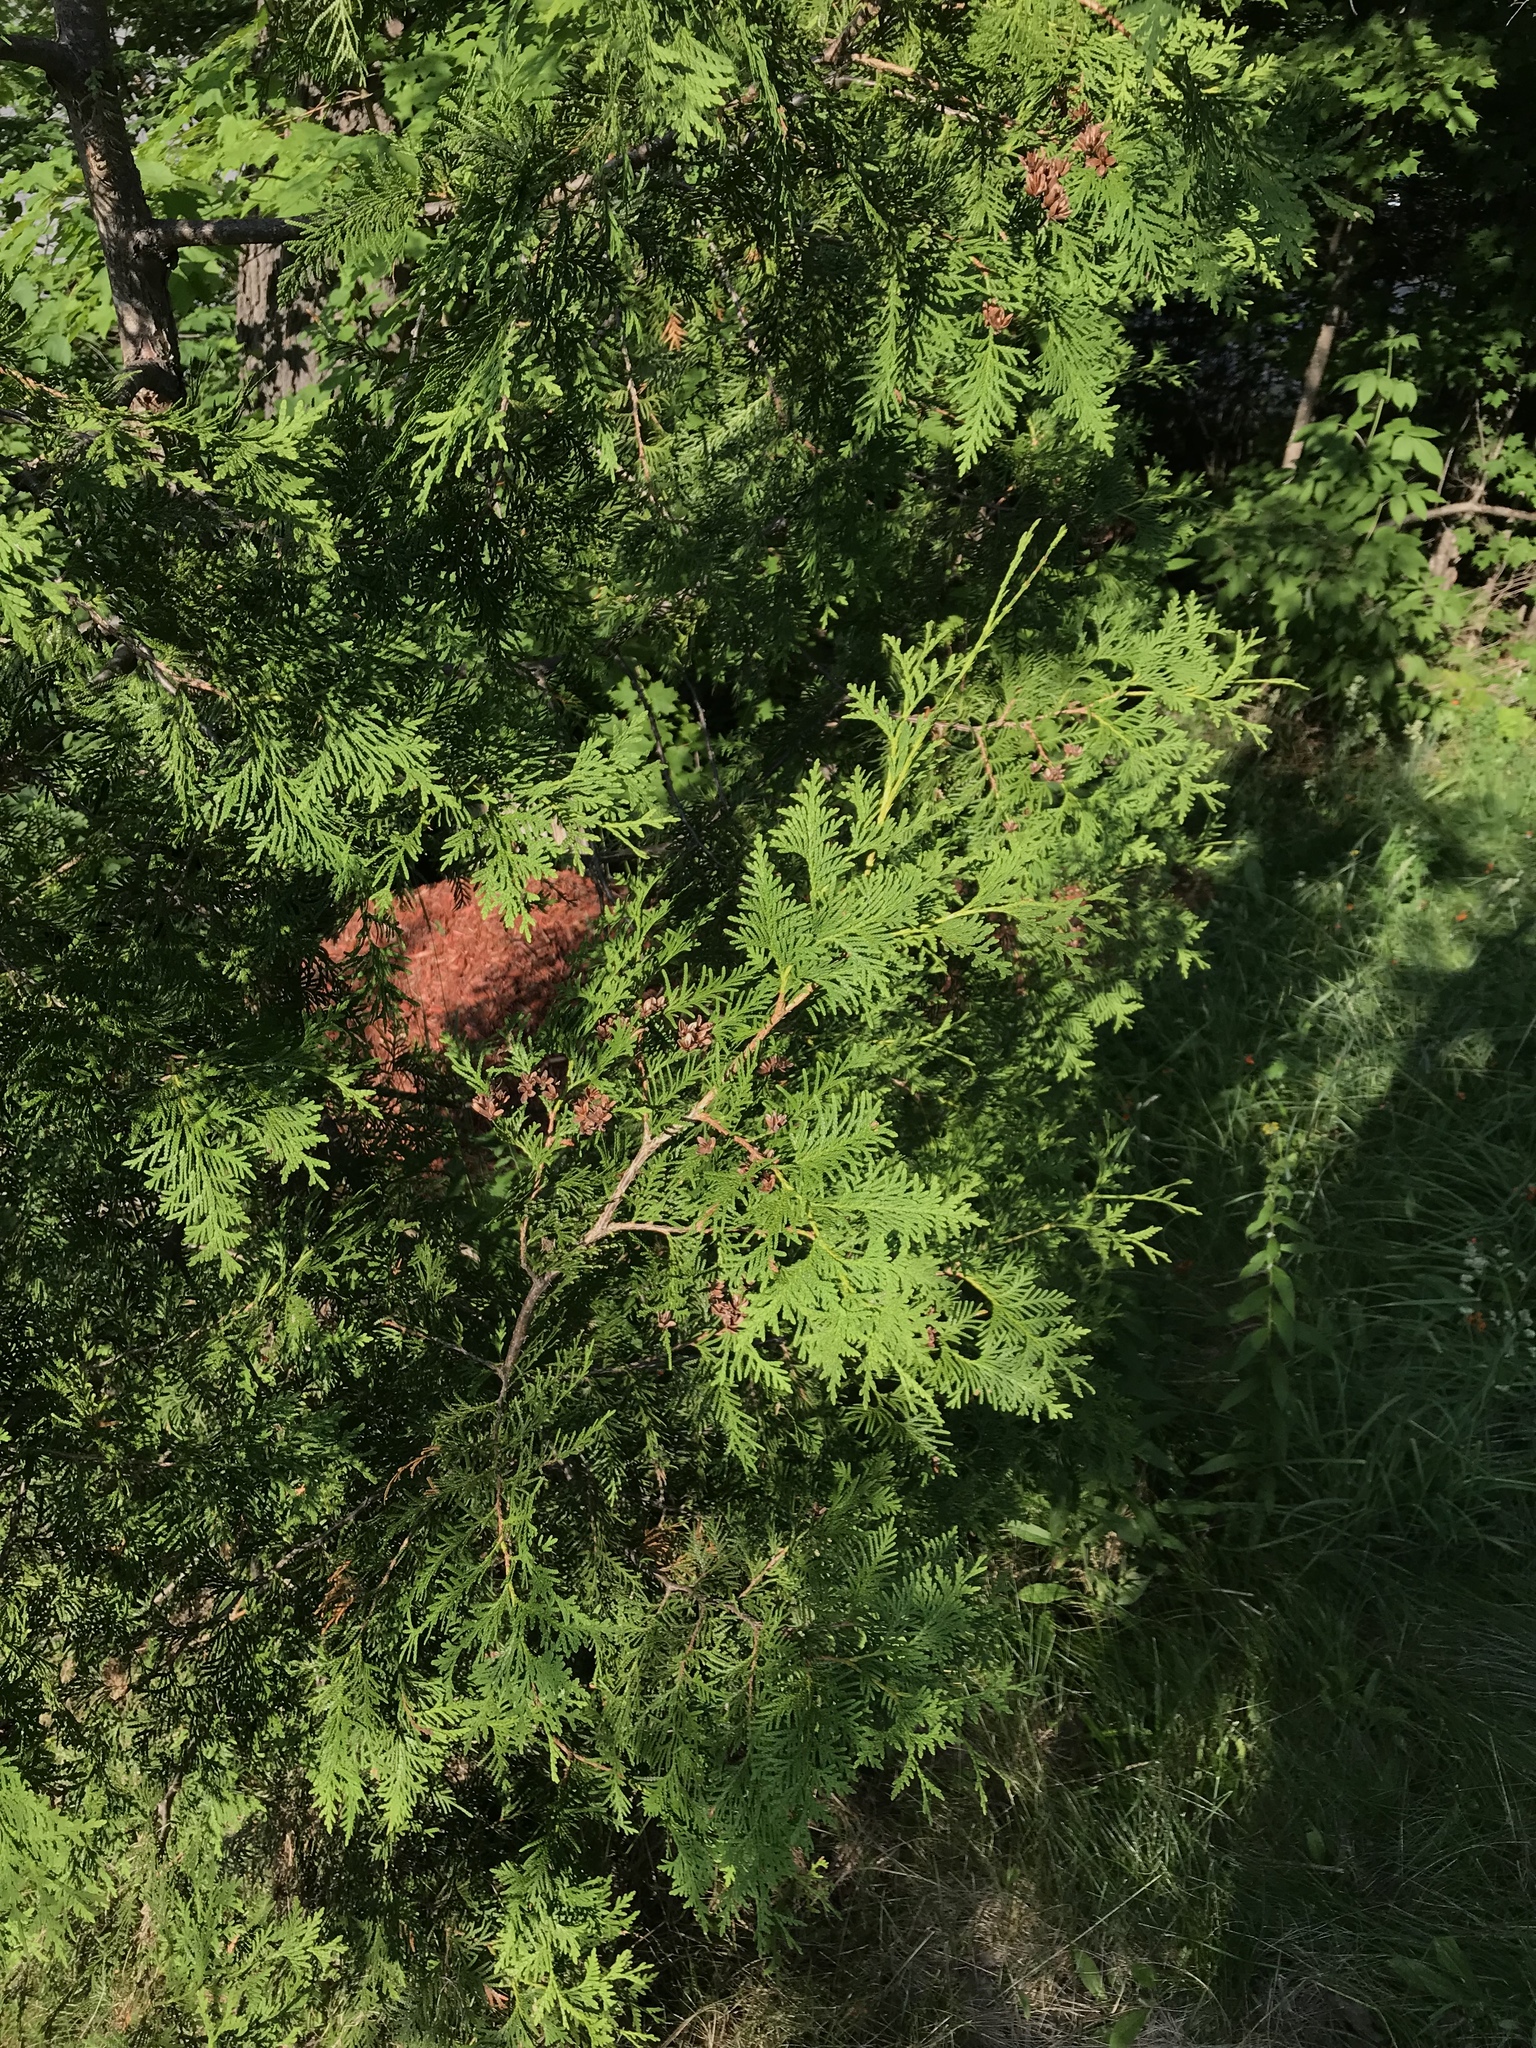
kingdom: Plantae
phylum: Tracheophyta
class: Pinopsida
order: Pinales
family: Cupressaceae
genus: Thuja
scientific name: Thuja occidentalis
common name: Northern white-cedar
